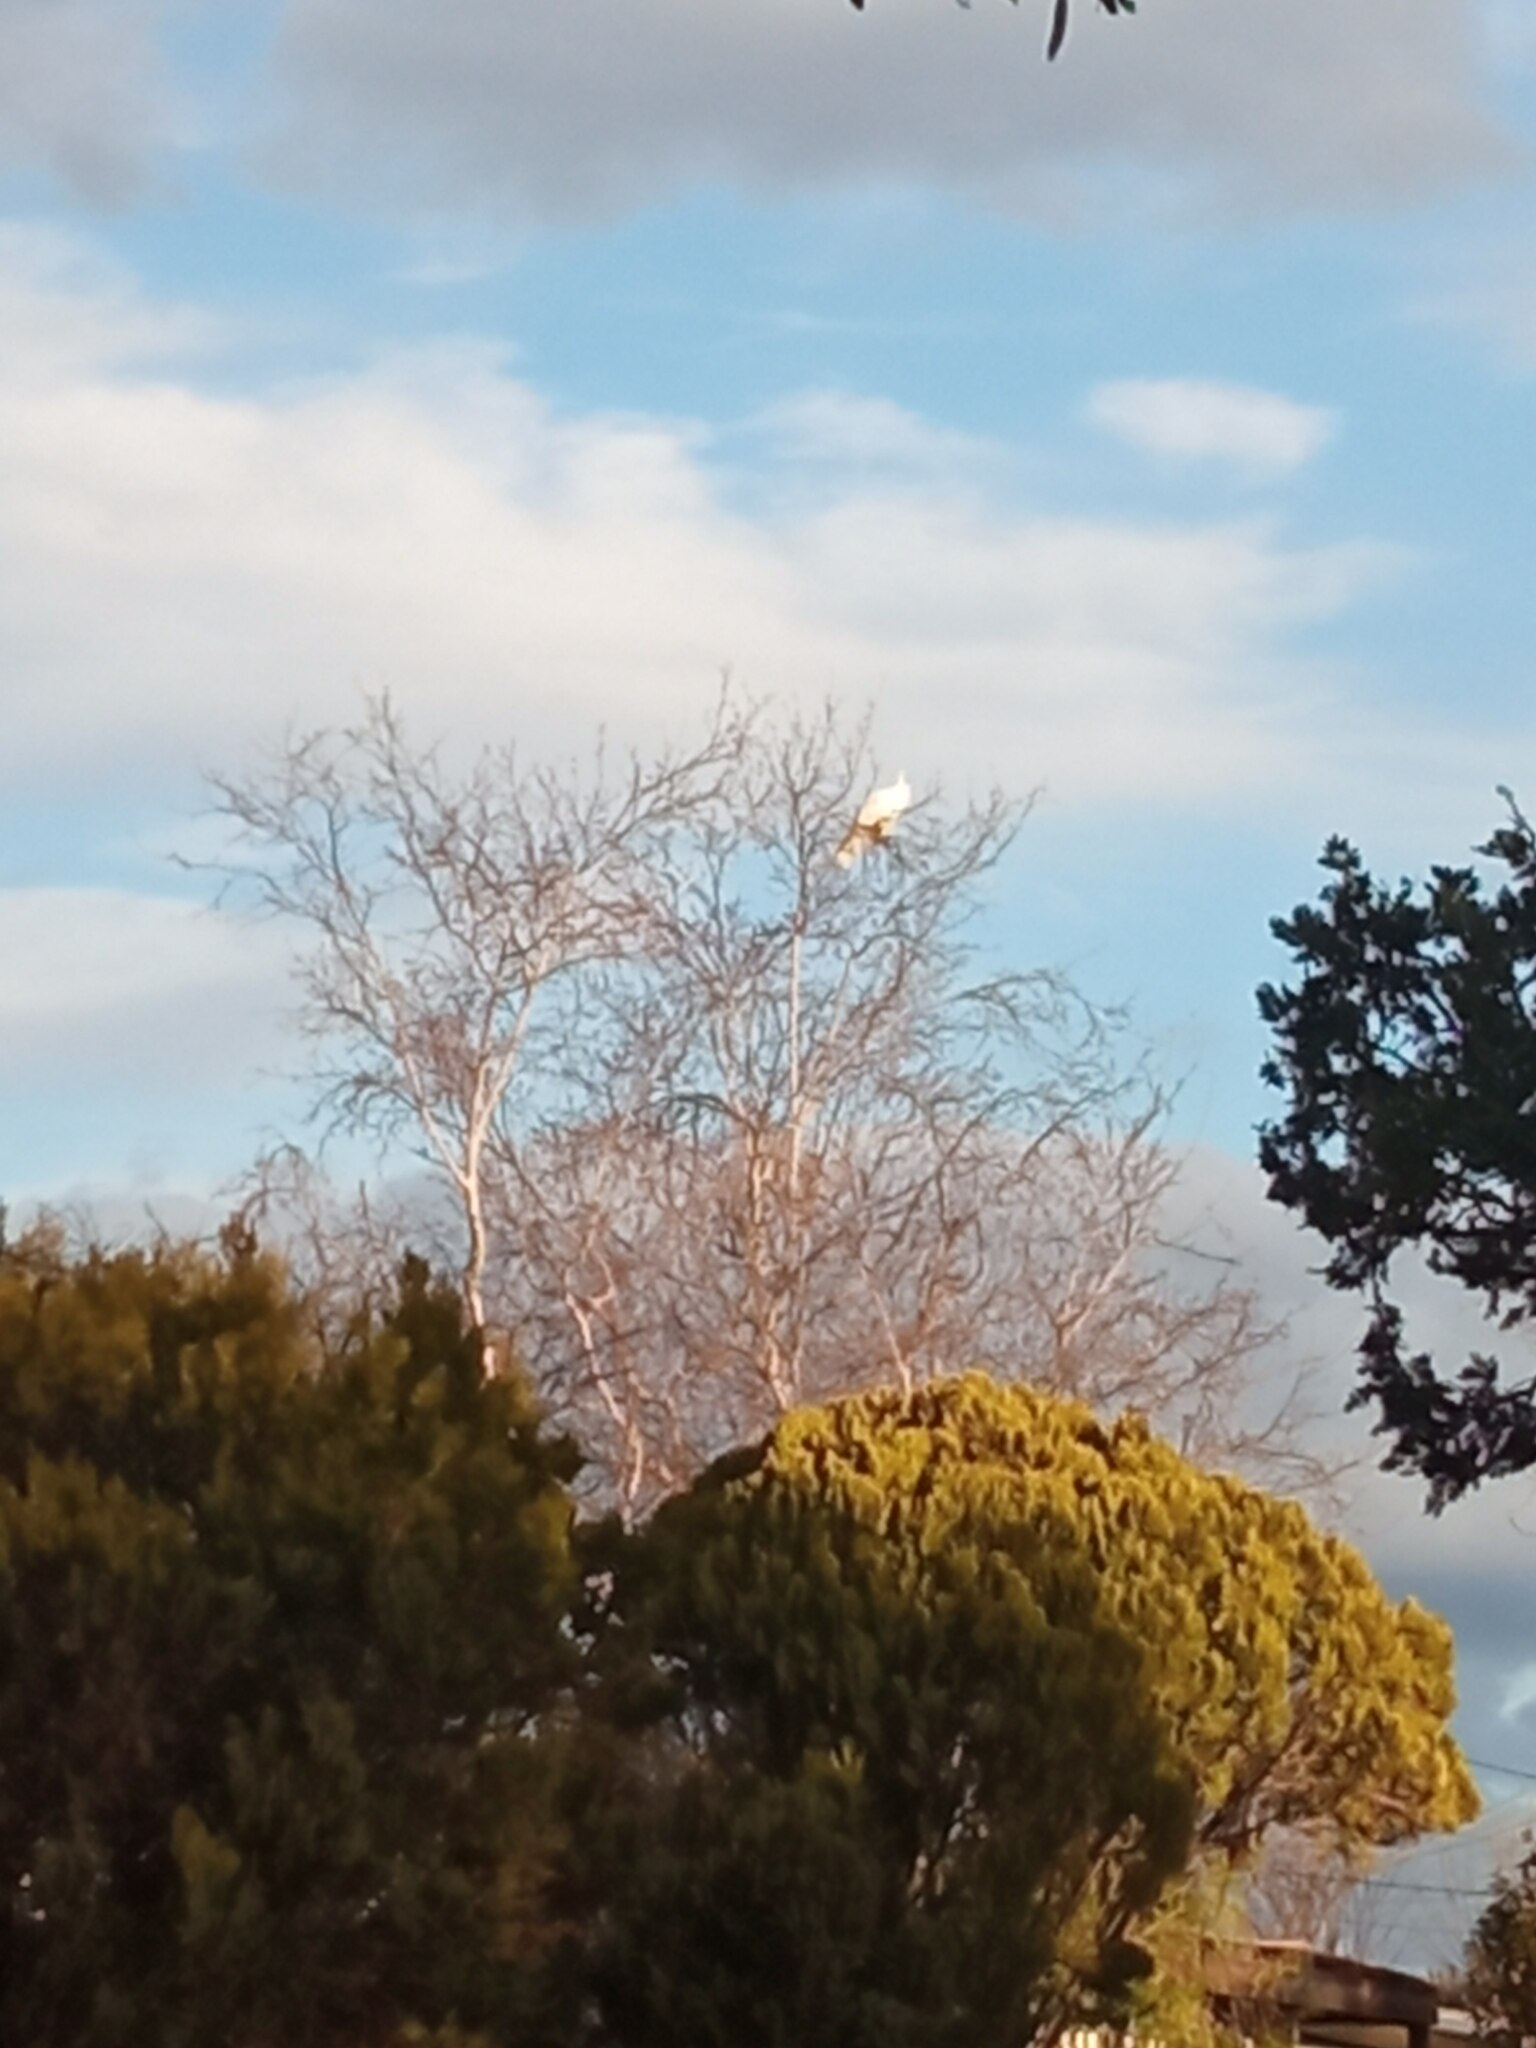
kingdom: Animalia
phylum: Chordata
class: Aves
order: Psittaciformes
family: Psittacidae
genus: Cacatua
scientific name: Cacatua galerita
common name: Sulphur-crested cockatoo
